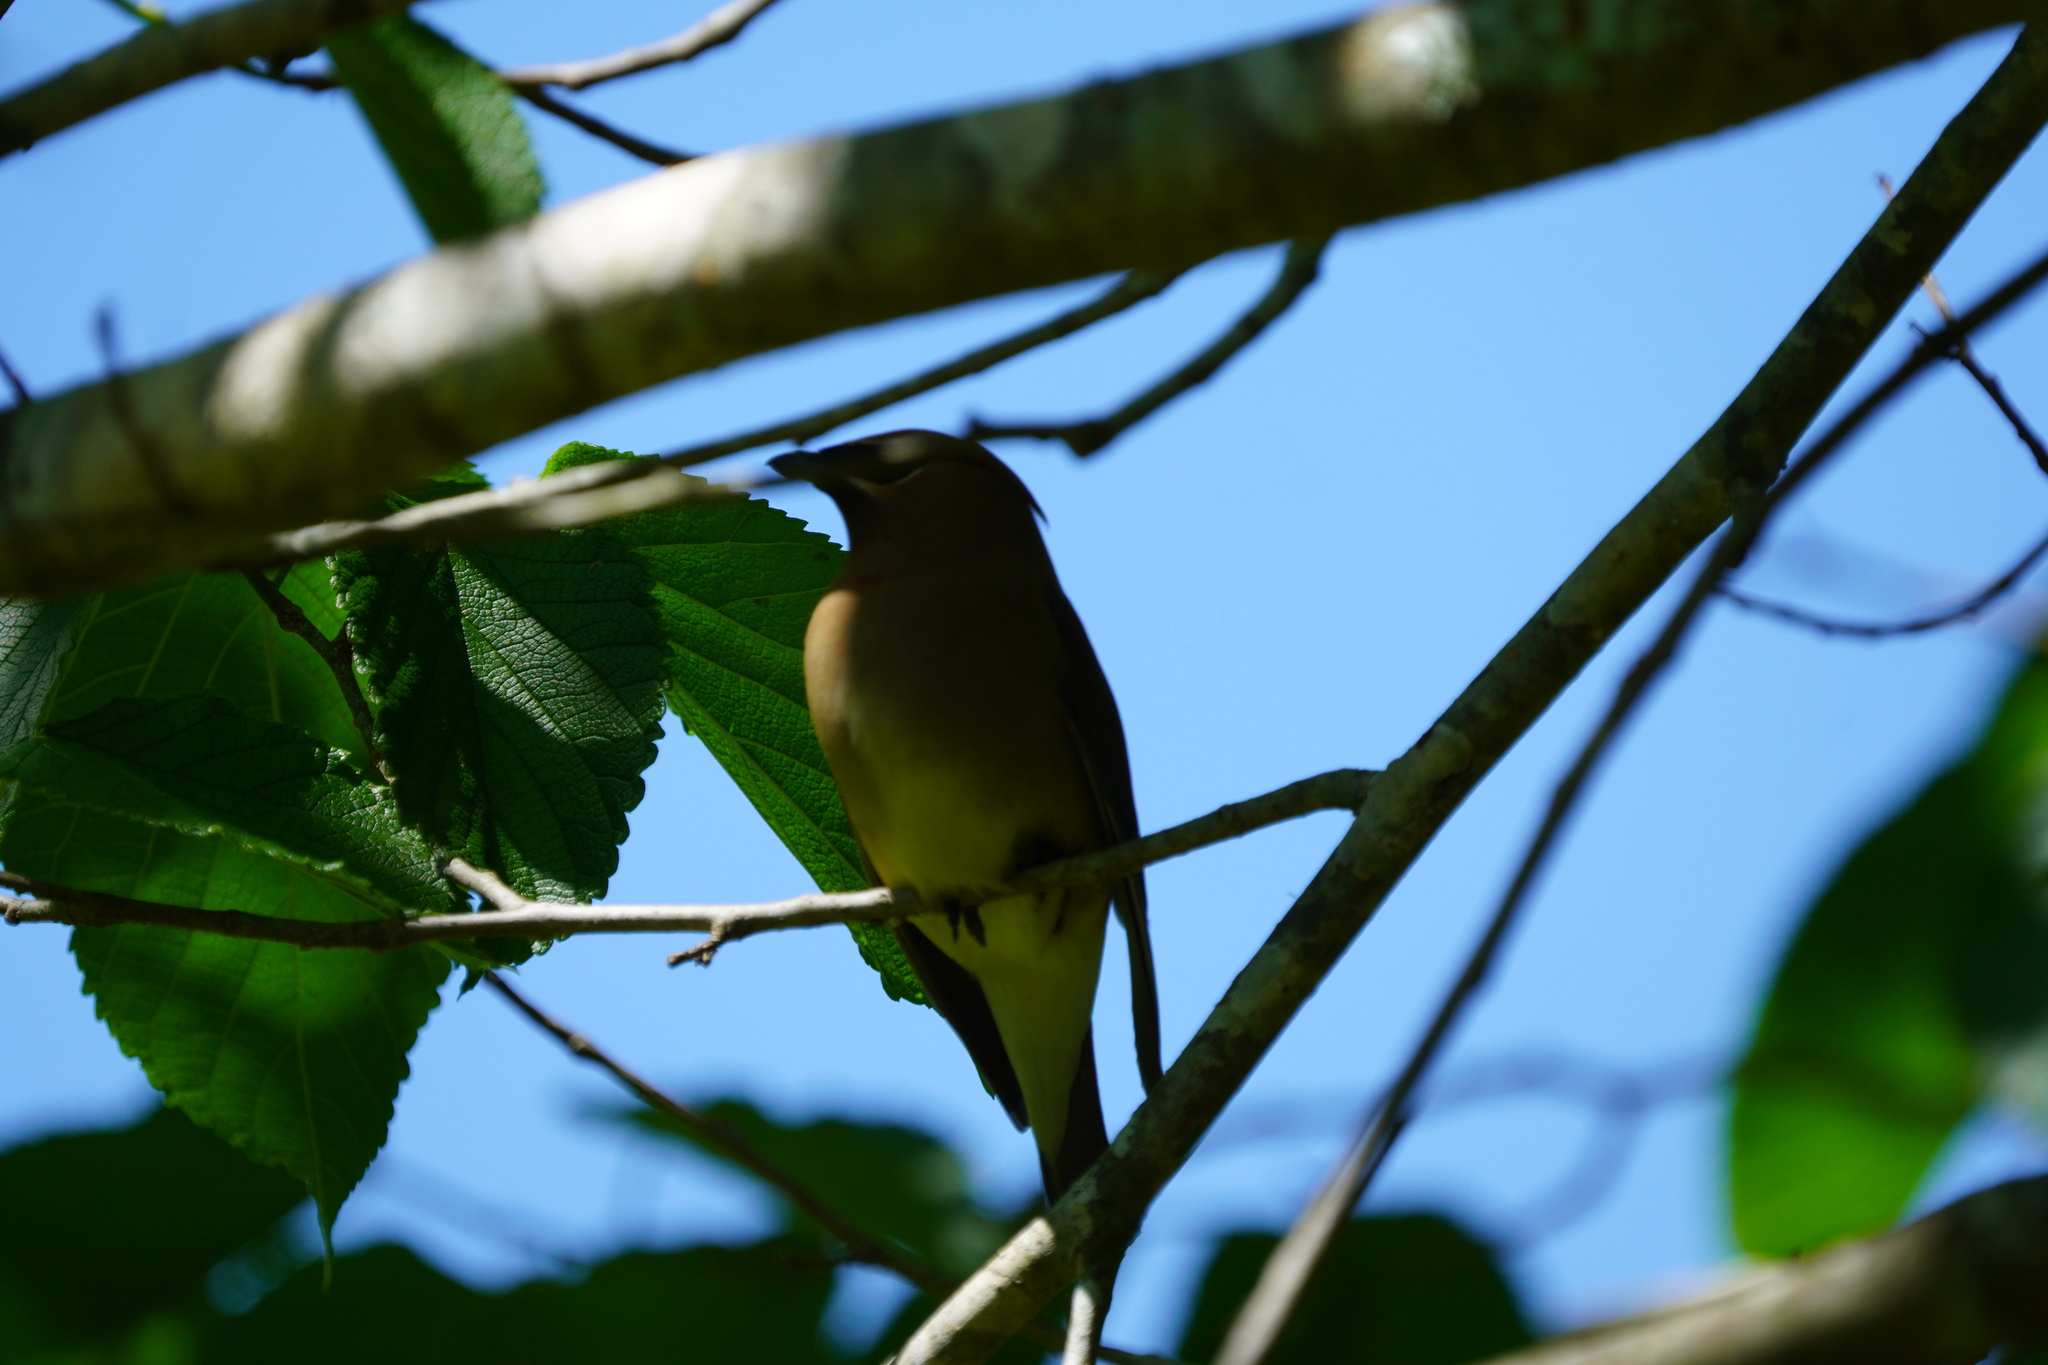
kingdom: Animalia
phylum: Chordata
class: Aves
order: Passeriformes
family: Bombycillidae
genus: Bombycilla
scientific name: Bombycilla cedrorum
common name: Cedar waxwing
